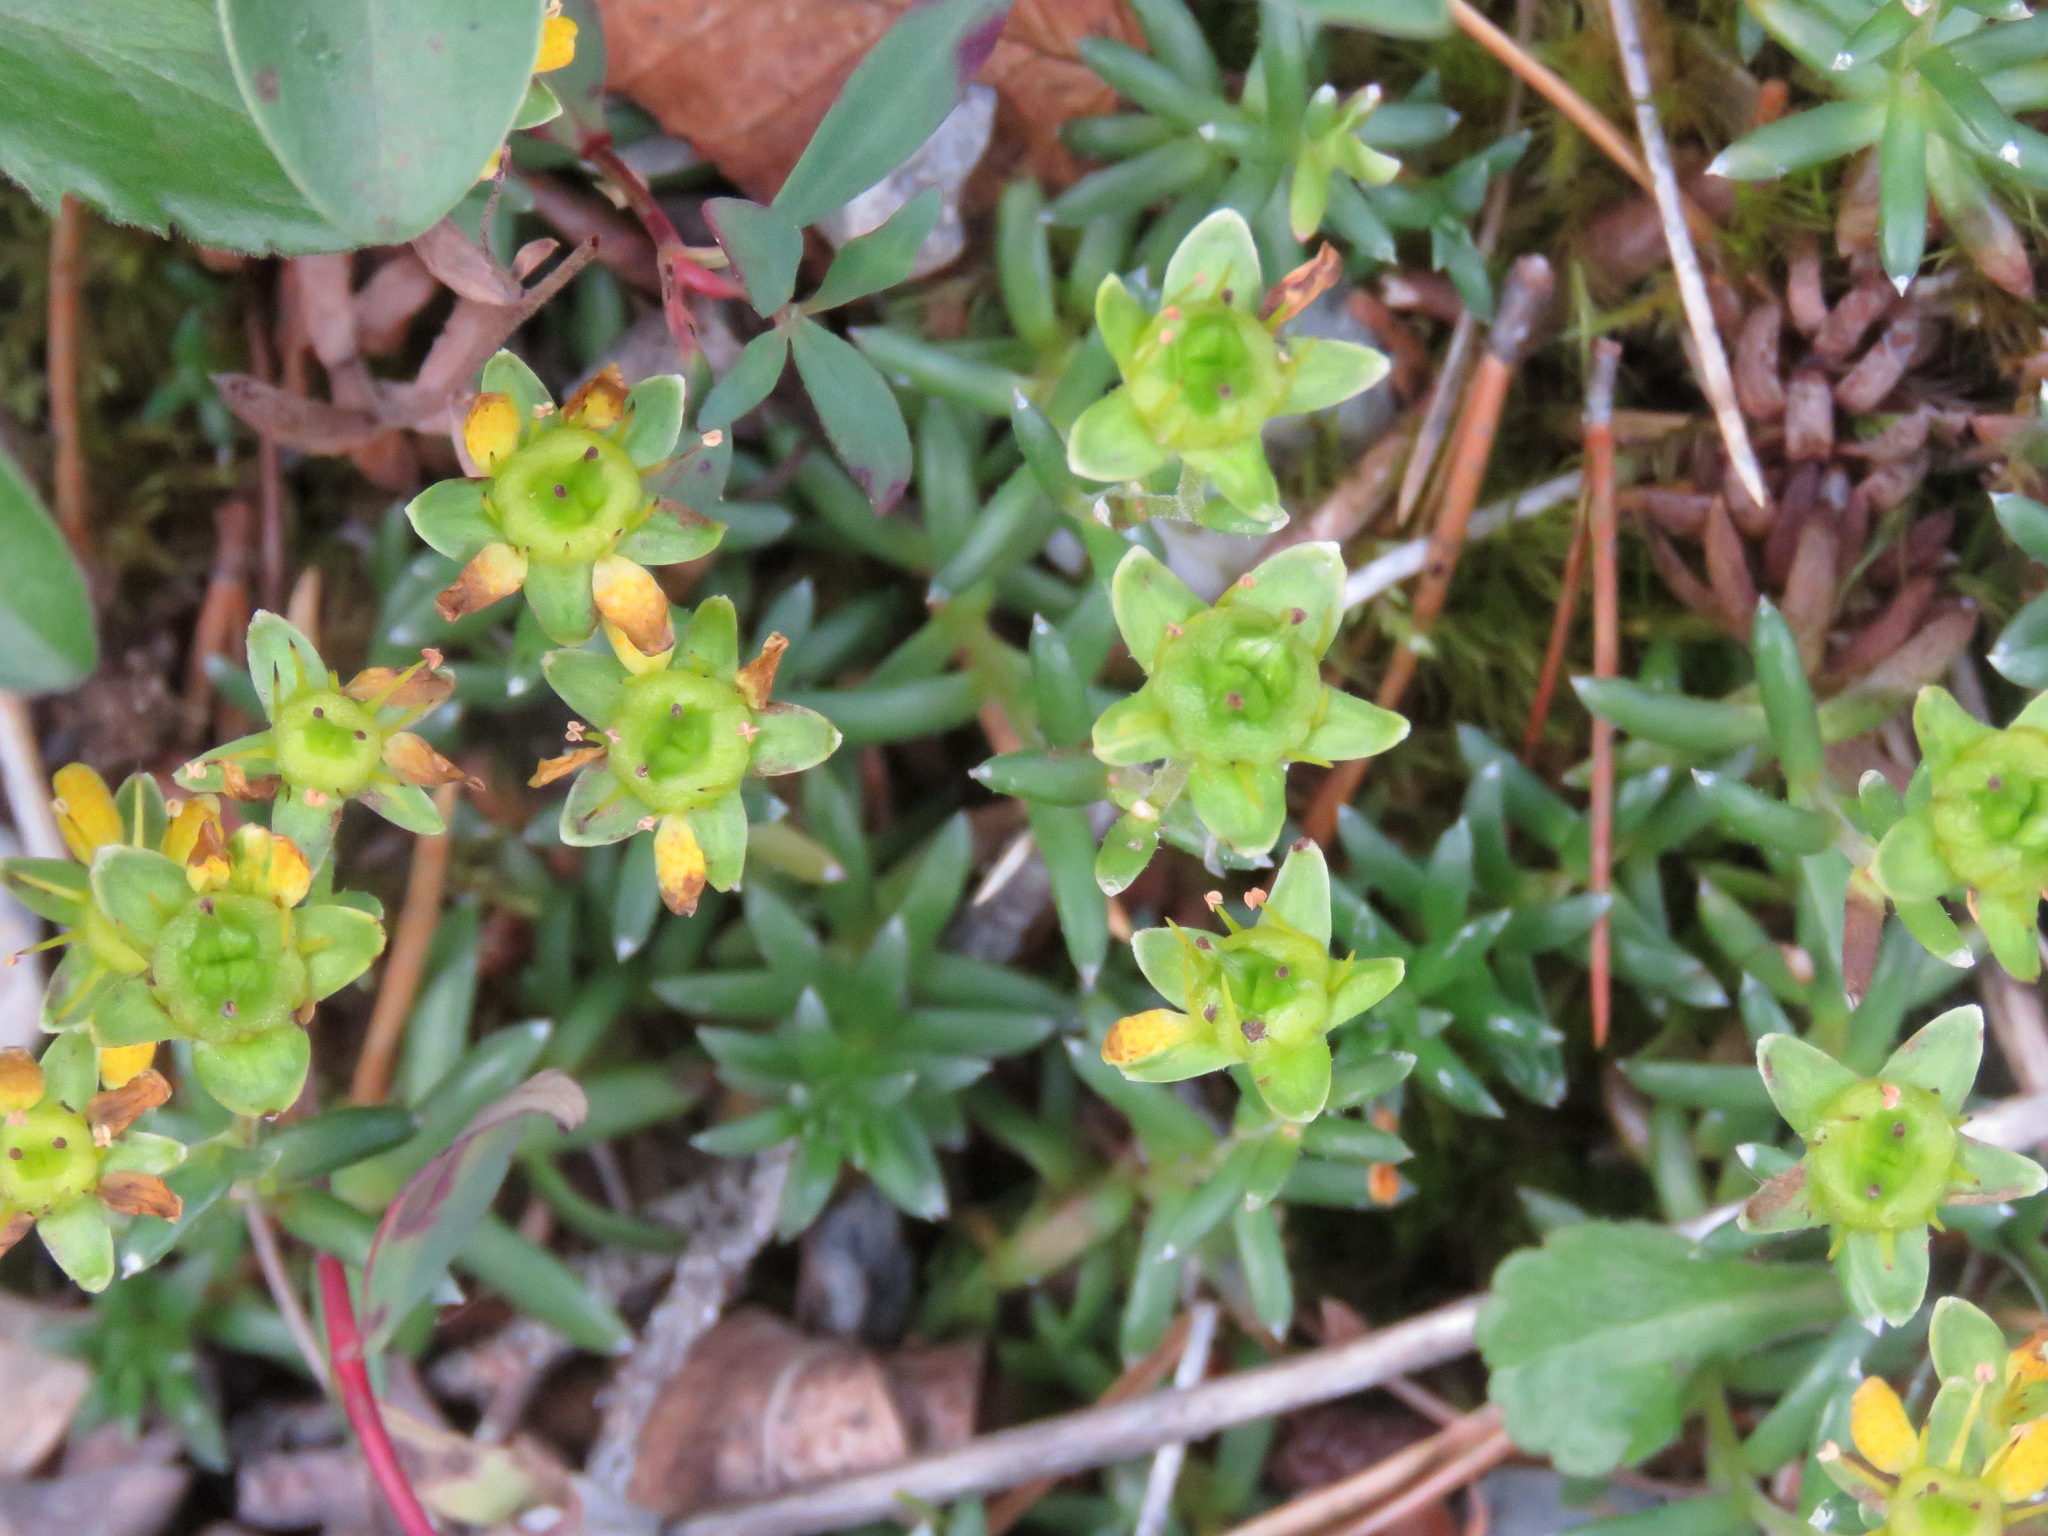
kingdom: Plantae
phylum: Tracheophyta
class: Magnoliopsida
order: Saxifragales
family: Saxifragaceae
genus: Saxifraga
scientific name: Saxifraga aizoides
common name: Yellow mountain saxifrage
